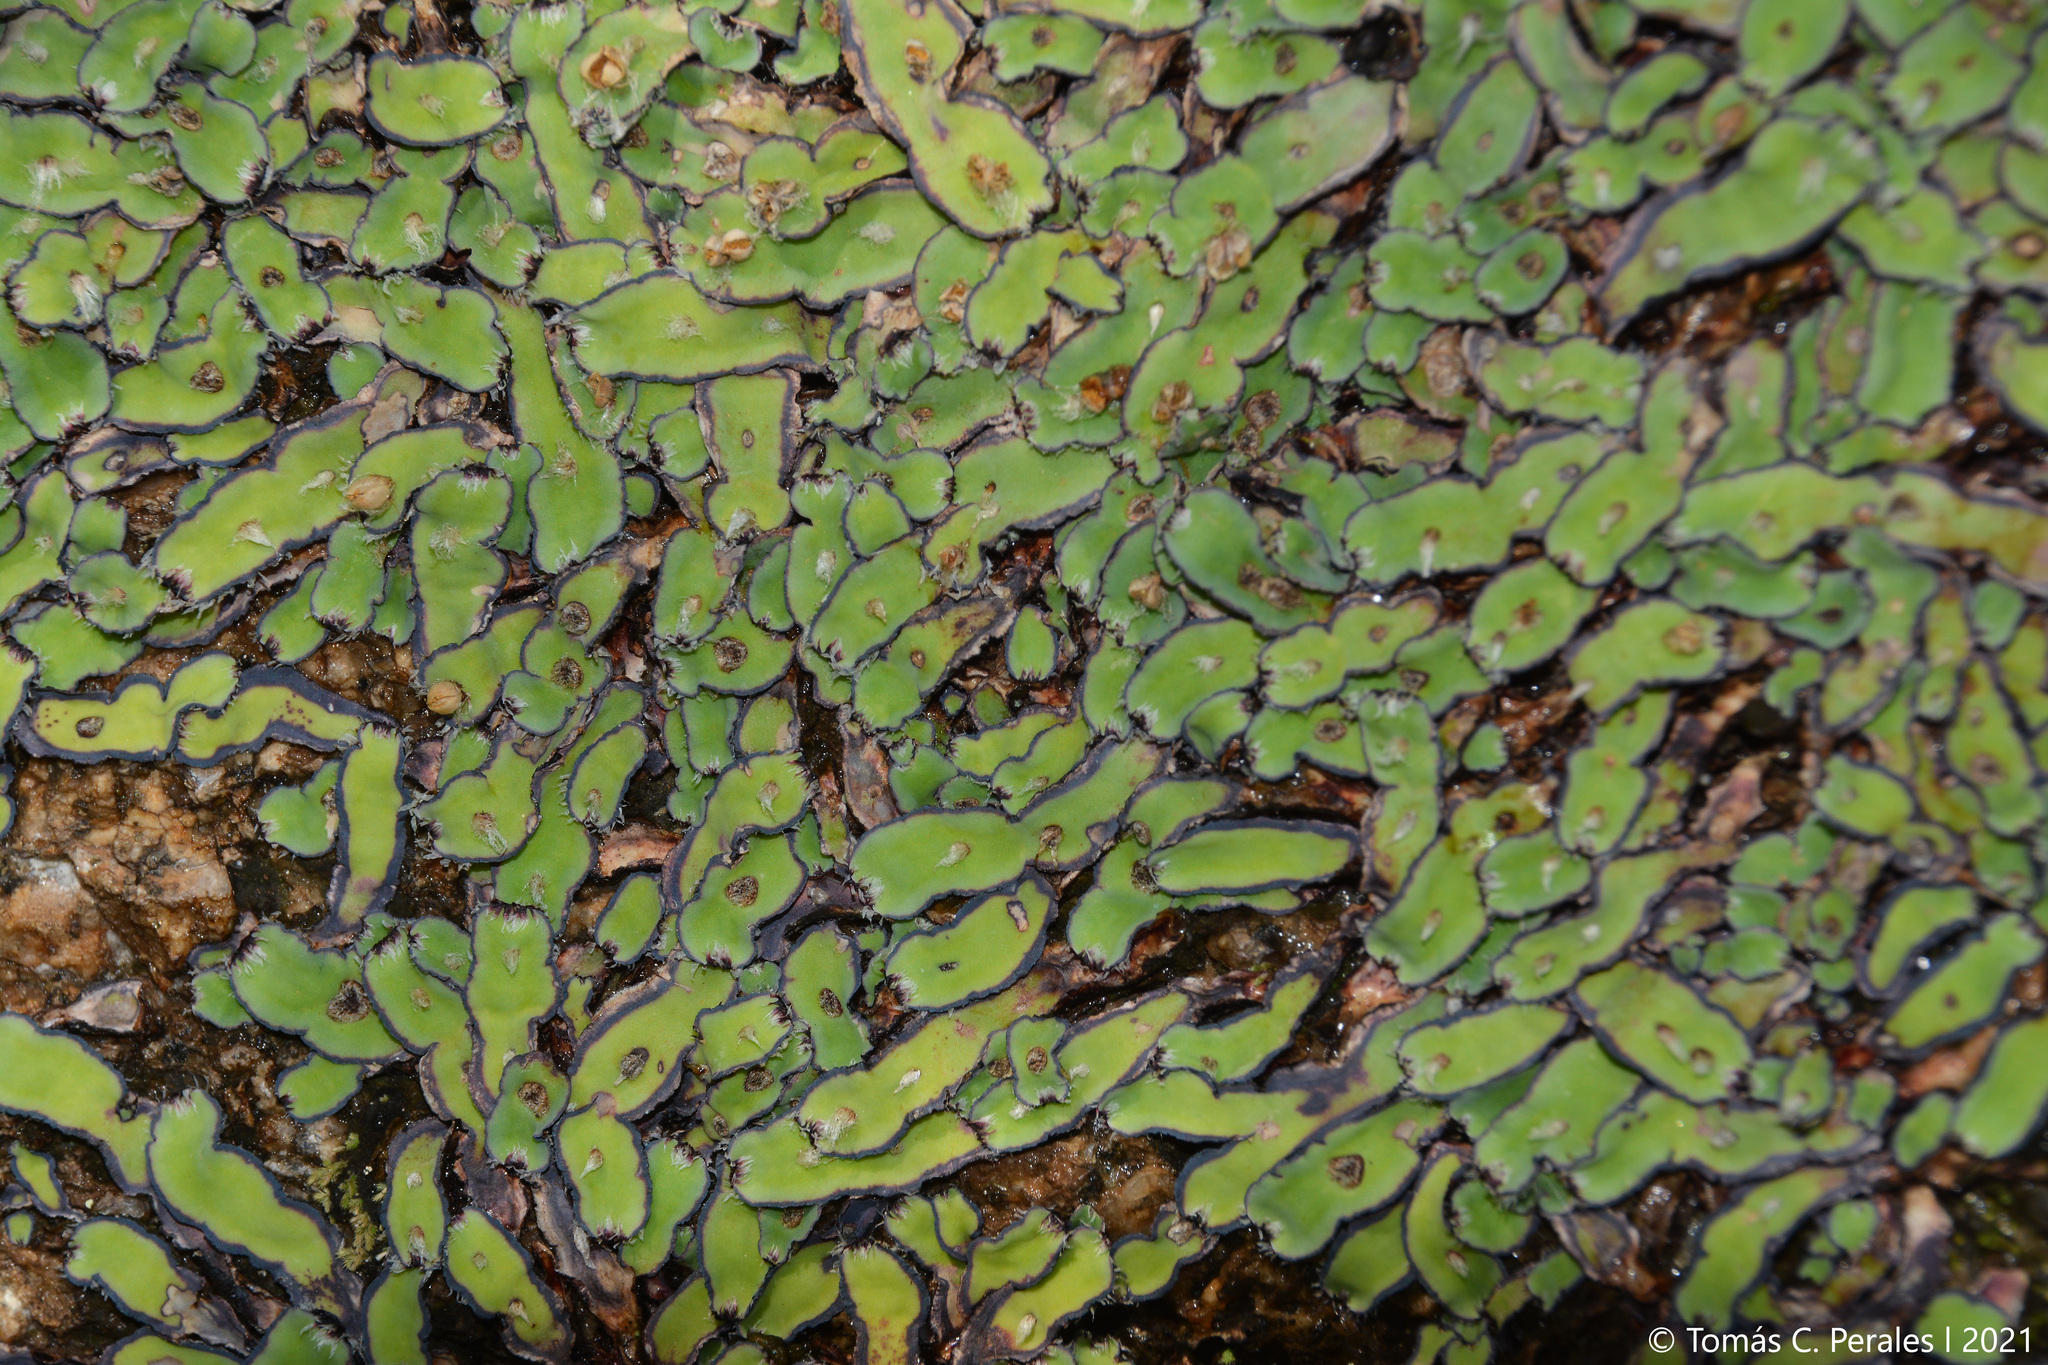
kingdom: Plantae
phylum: Marchantiophyta
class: Marchantiopsida
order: Marchantiales
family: Aytoniaceae
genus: Plagiochasma
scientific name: Plagiochasma rupestre
